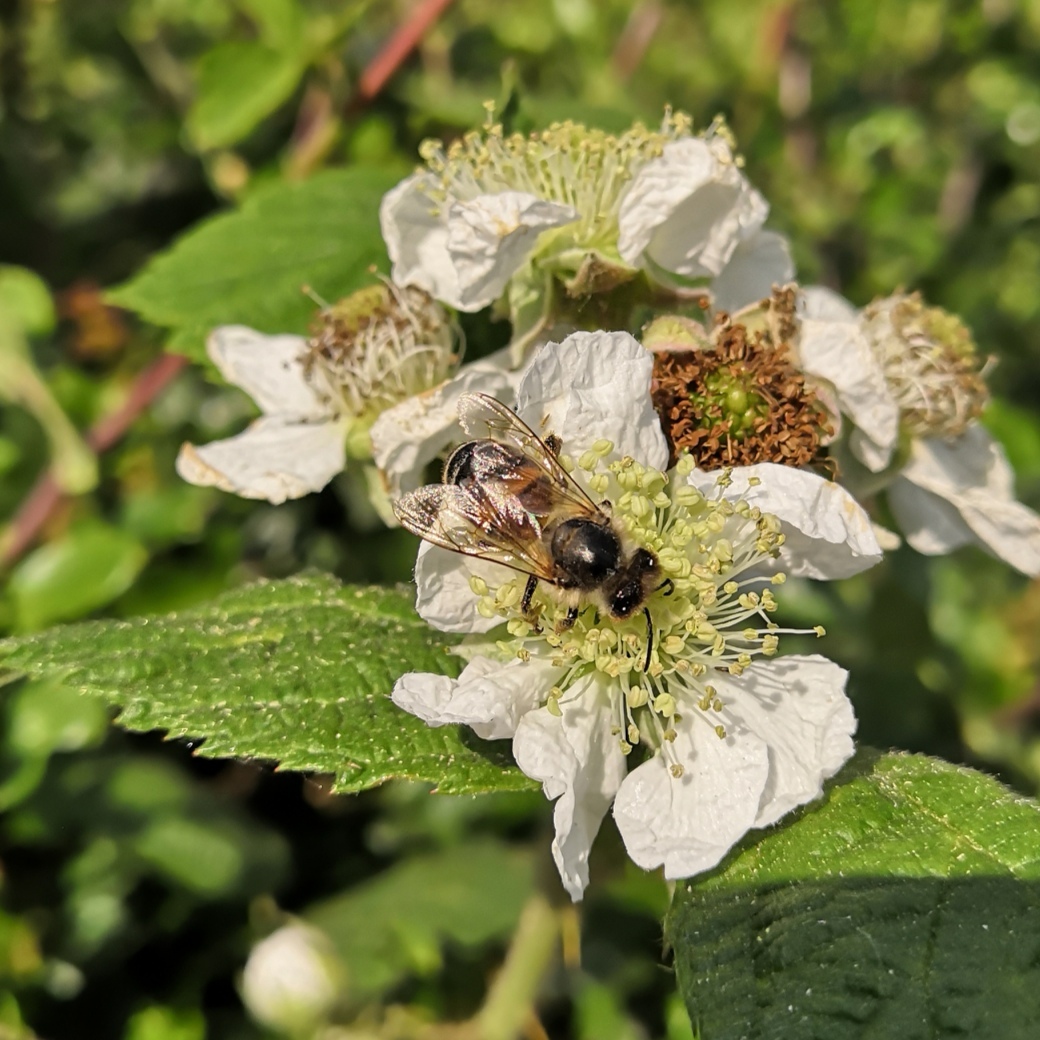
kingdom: Animalia
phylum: Arthropoda
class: Insecta
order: Hymenoptera
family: Apidae
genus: Apis
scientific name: Apis mellifera
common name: Honey bee
